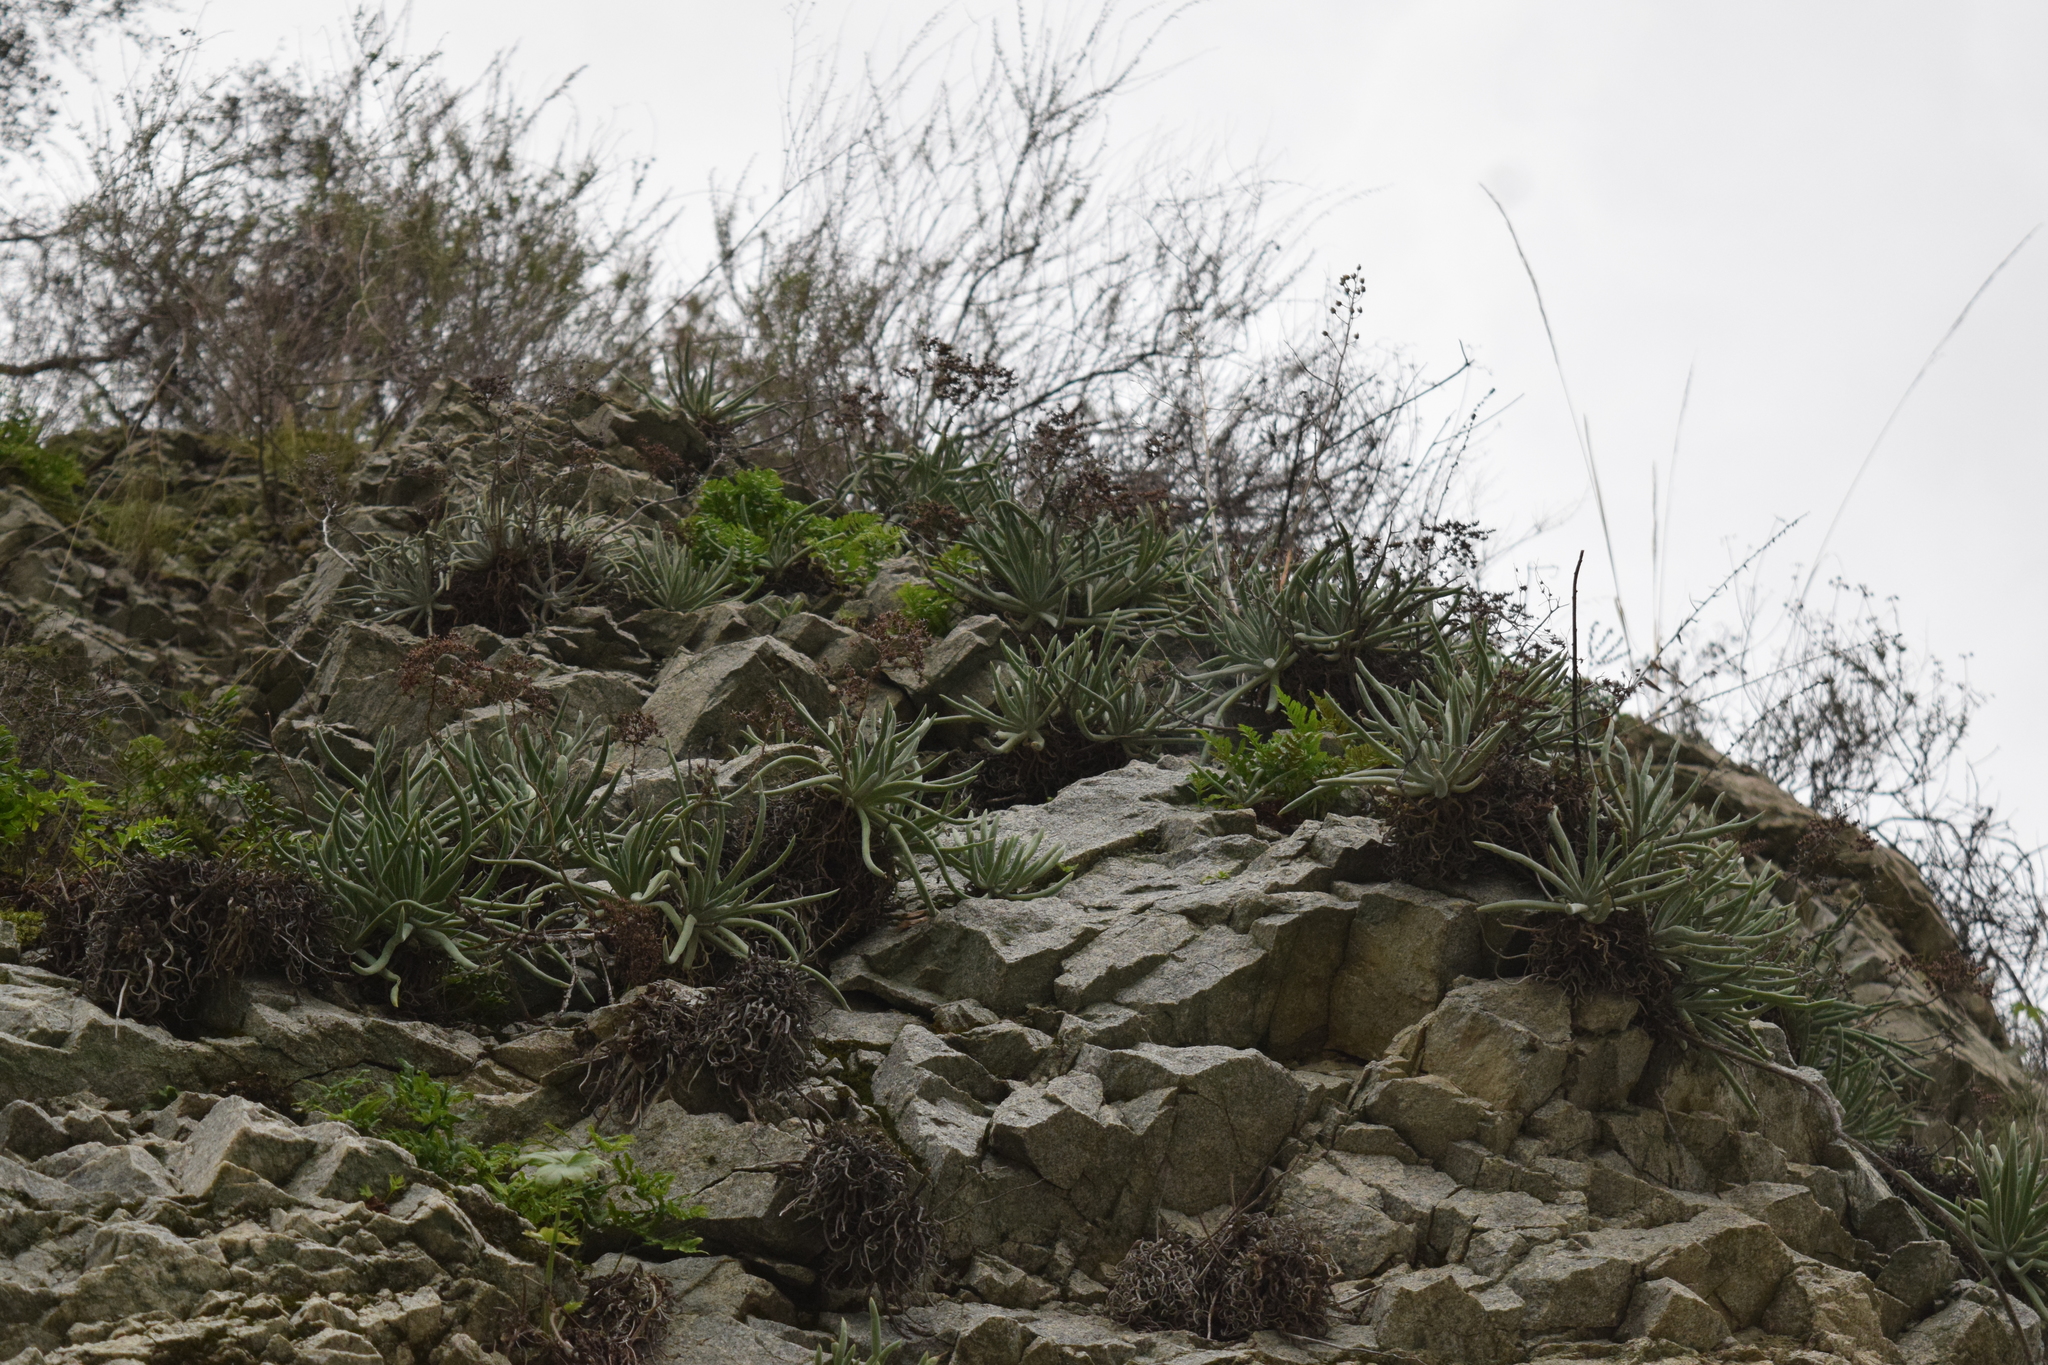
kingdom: Plantae
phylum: Tracheophyta
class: Magnoliopsida
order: Saxifragales
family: Crassulaceae
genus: Dudleya
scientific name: Dudleya densiflora
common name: San gabriel mountains dudleya
